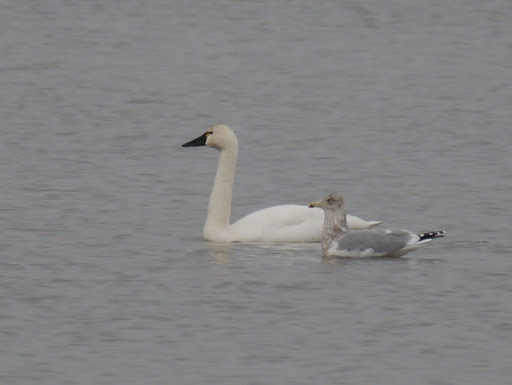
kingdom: Animalia
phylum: Chordata
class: Aves
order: Anseriformes
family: Anatidae
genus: Cygnus
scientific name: Cygnus columbianus
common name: Tundra swan
